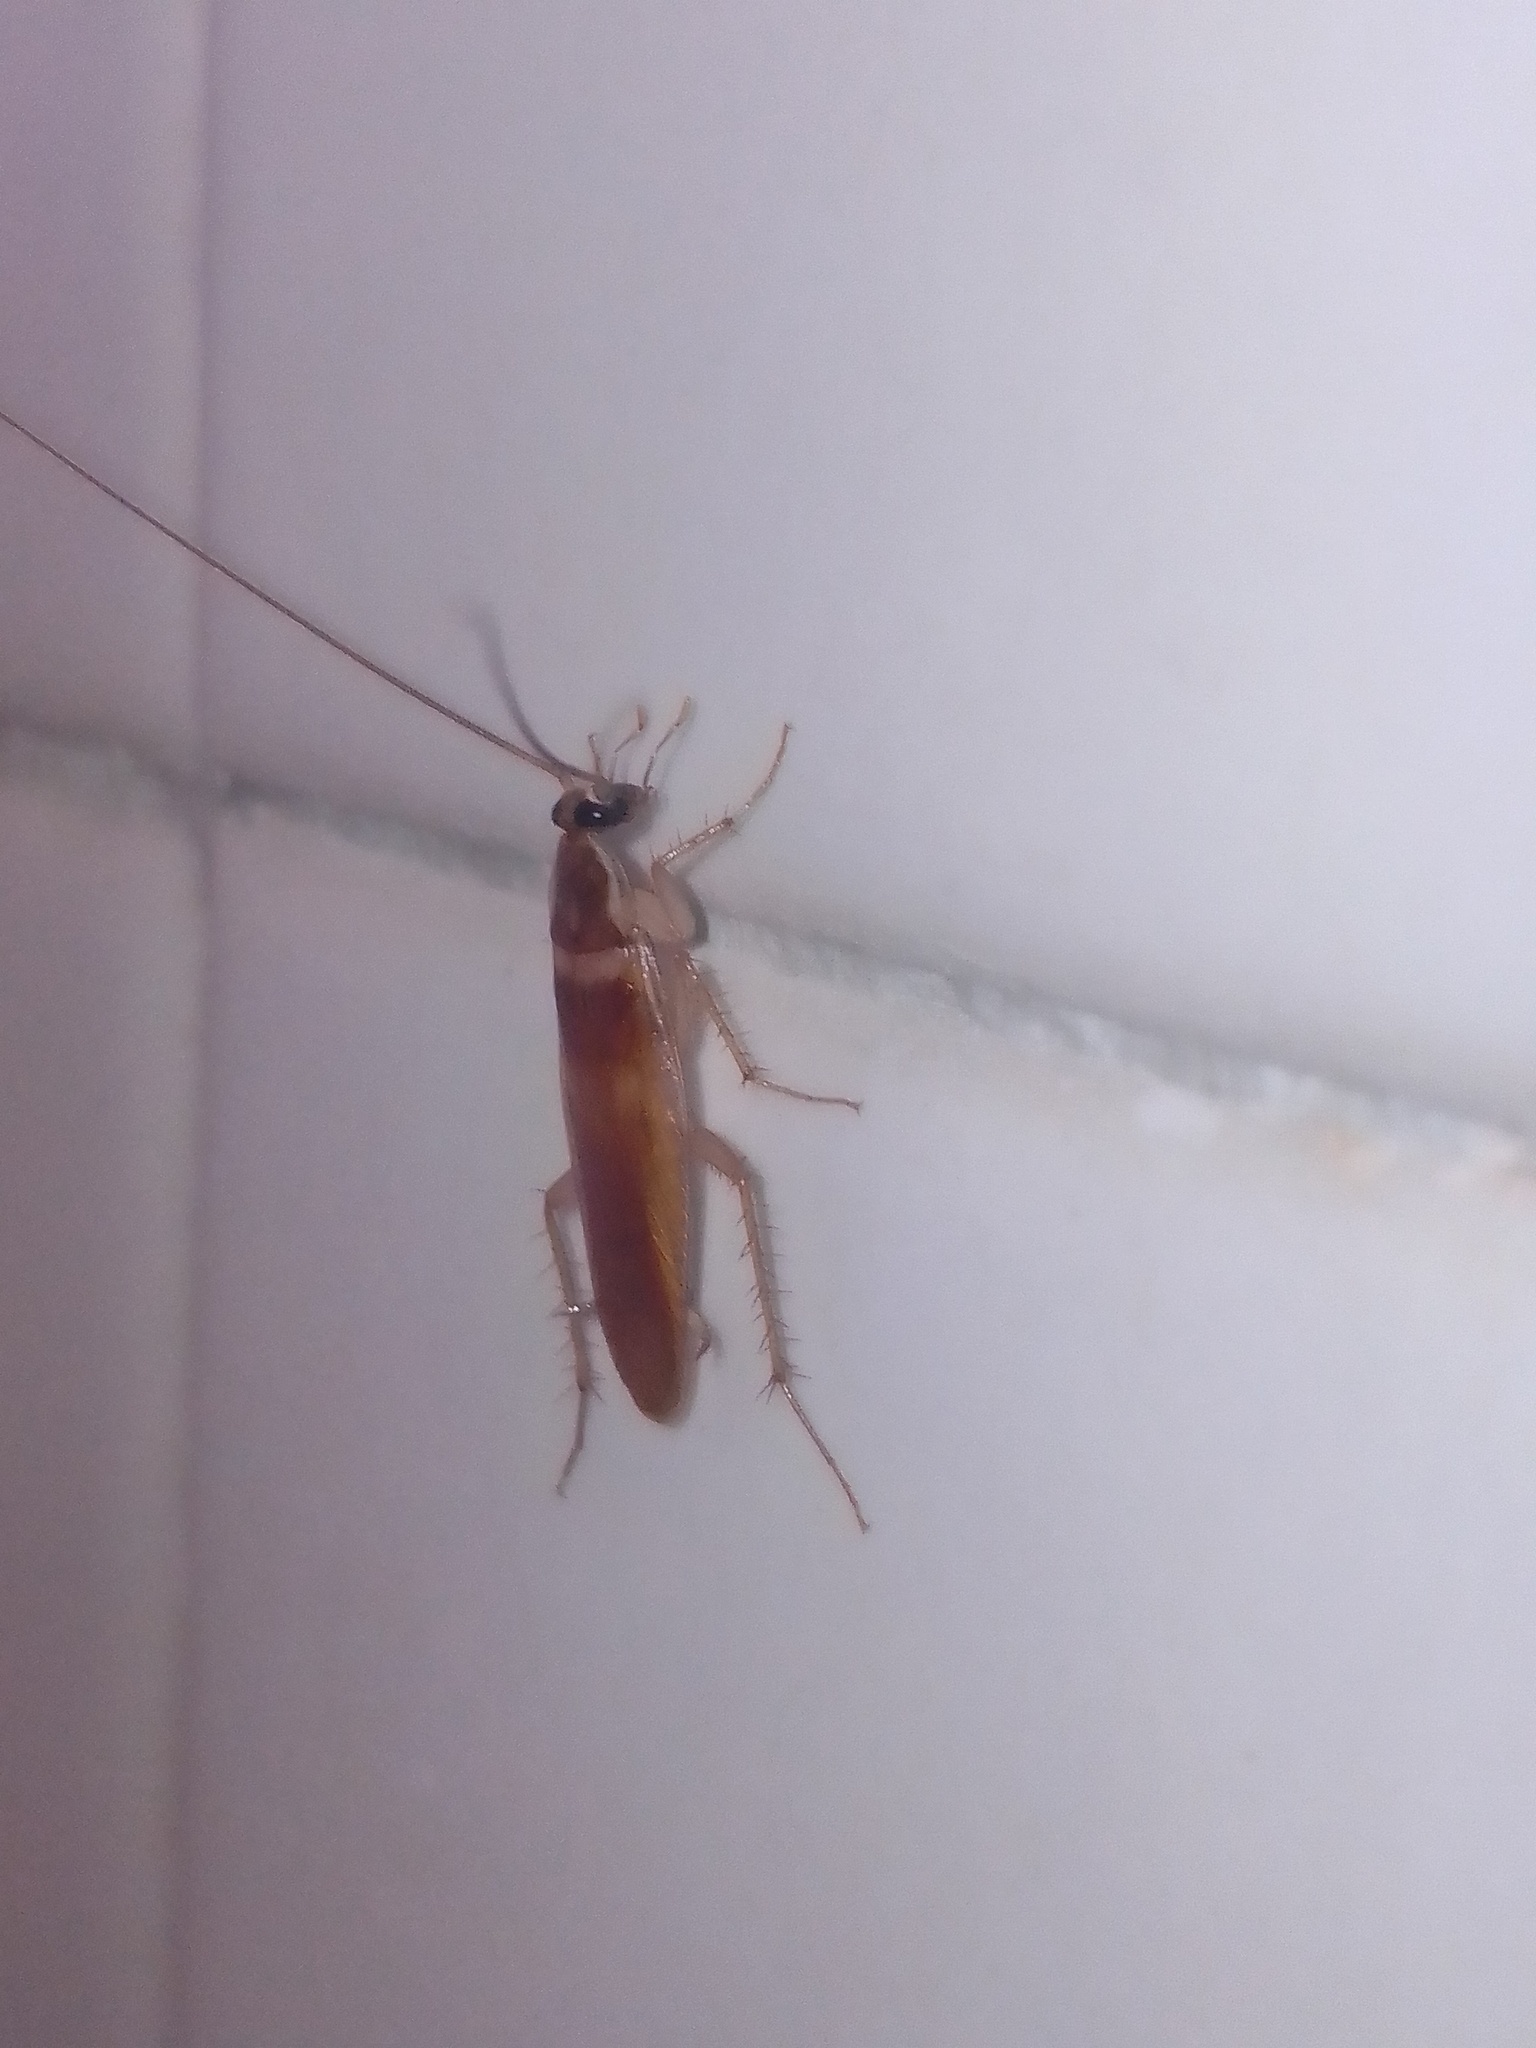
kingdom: Animalia
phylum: Arthropoda
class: Insecta
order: Blattodea
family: Ectobiidae
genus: Supella
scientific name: Supella longipalpa
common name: Brown-banded cockroach
